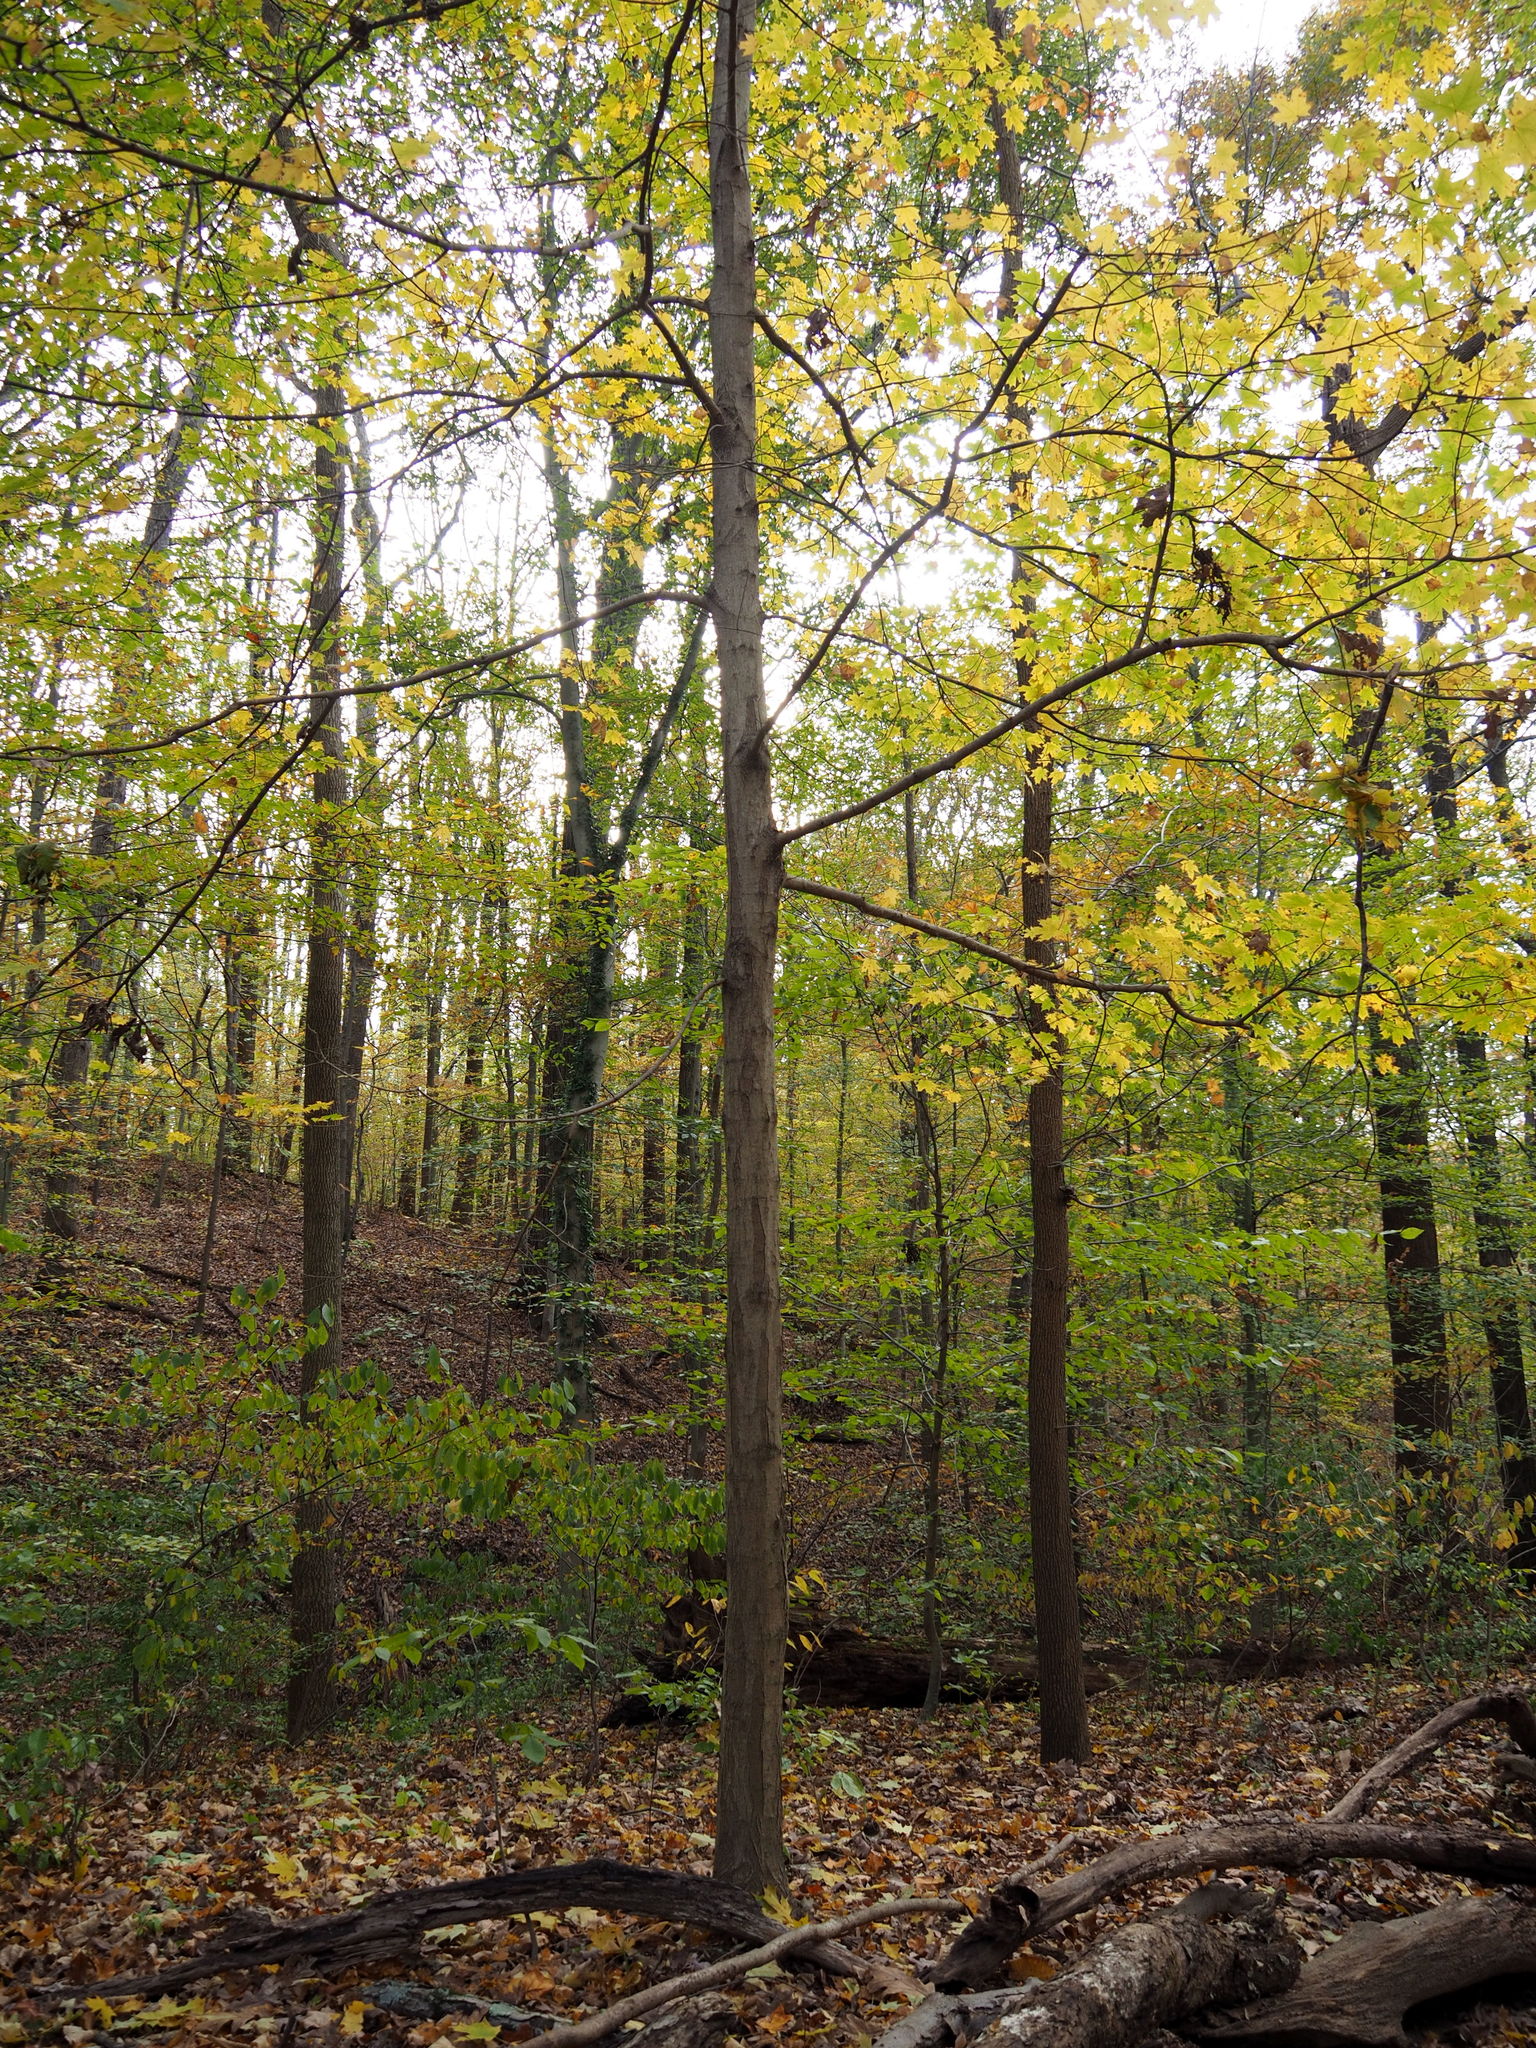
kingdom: Plantae
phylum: Tracheophyta
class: Magnoliopsida
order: Sapindales
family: Sapindaceae
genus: Acer
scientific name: Acer saccharum
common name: Sugar maple
